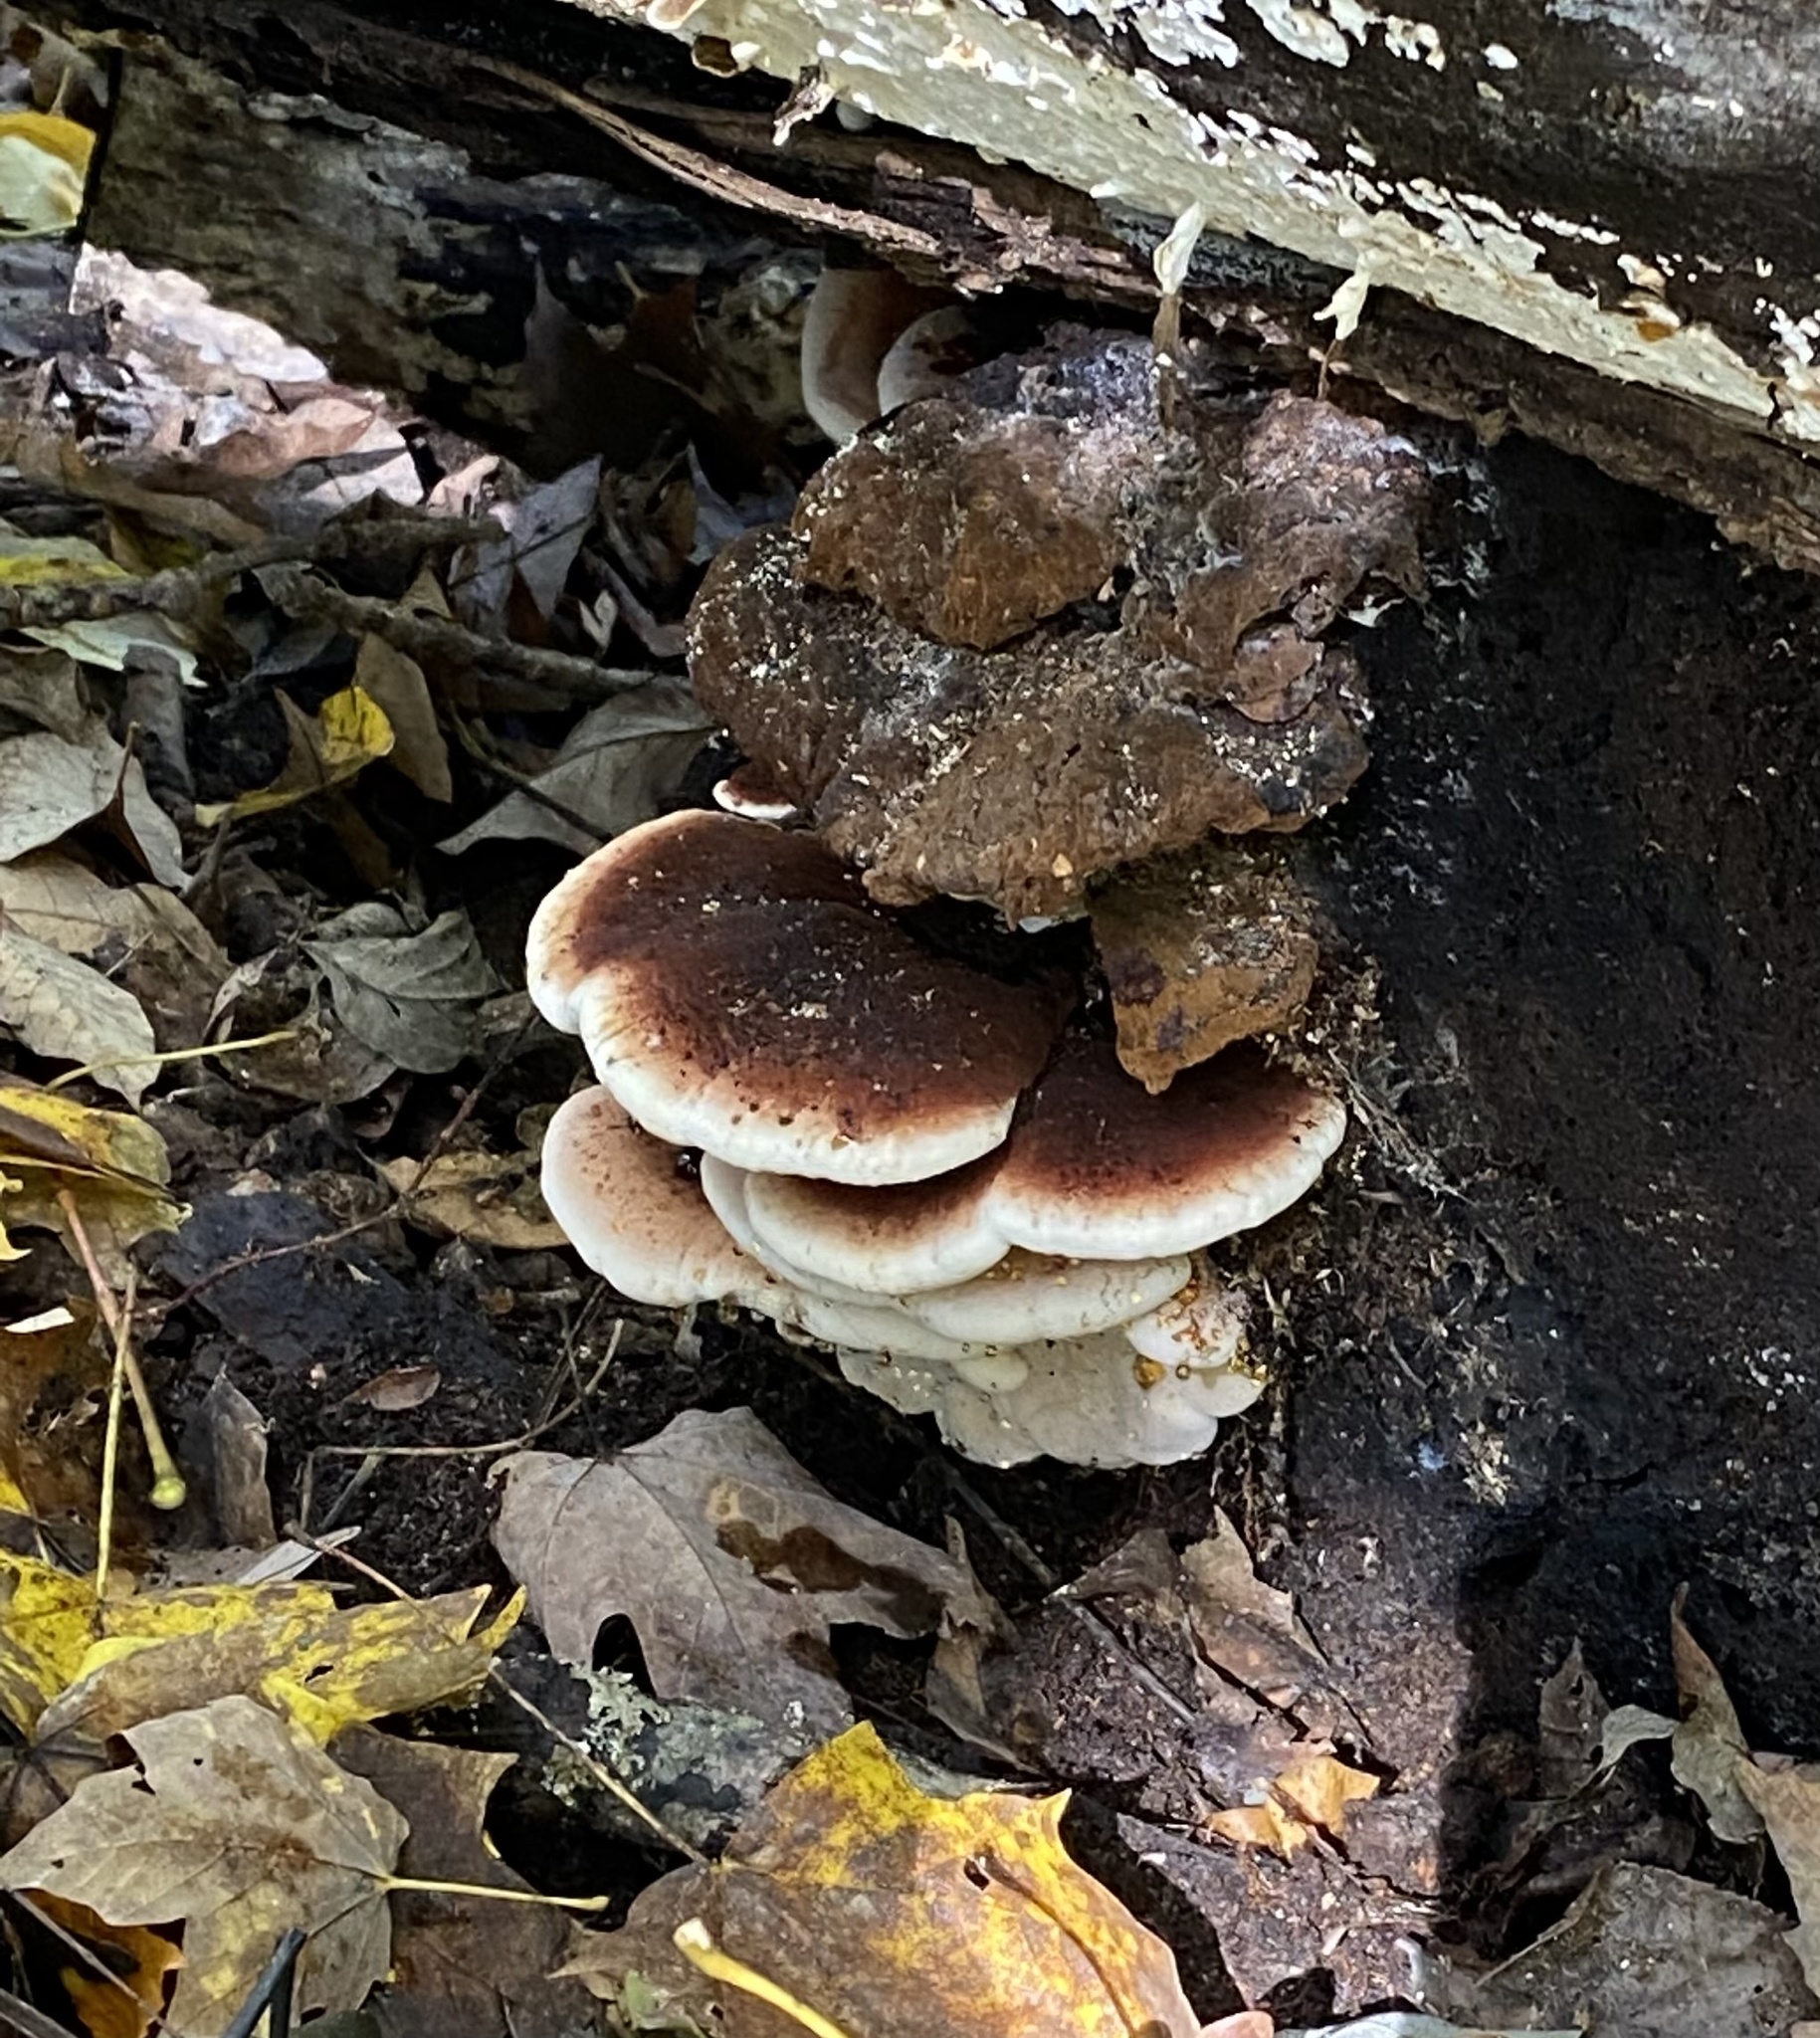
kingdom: Fungi
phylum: Basidiomycota
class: Agaricomycetes
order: Polyporales
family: Ischnodermataceae
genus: Ischnoderma
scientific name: Ischnoderma resinosum
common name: Resinous polypore
